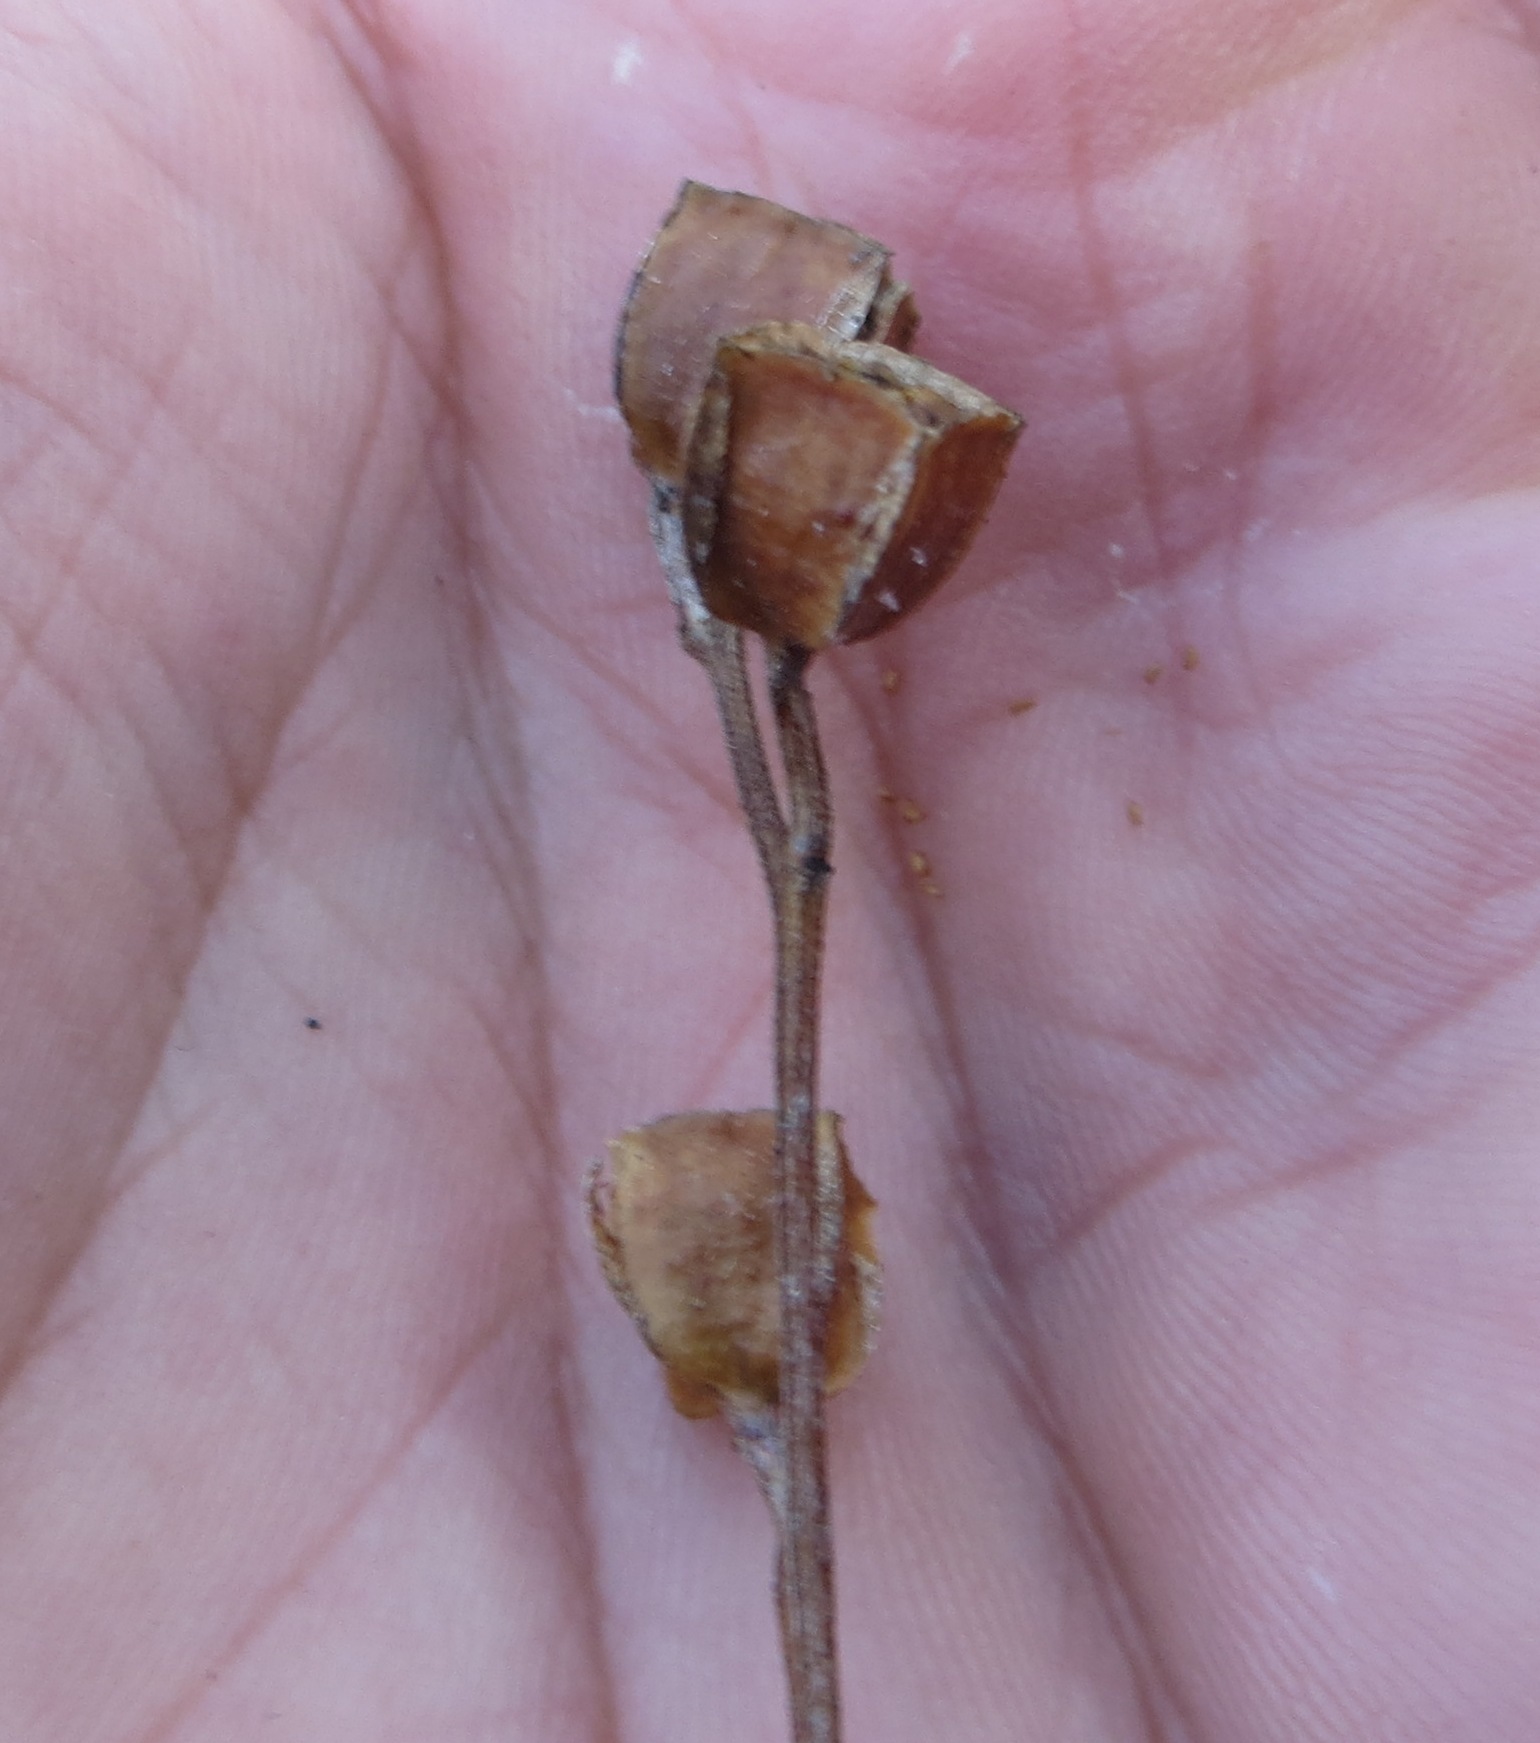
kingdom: Plantae
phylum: Tracheophyta
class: Magnoliopsida
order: Myrtales
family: Onagraceae
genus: Ludwigia
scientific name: Ludwigia alternifolia
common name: Rattlebox
